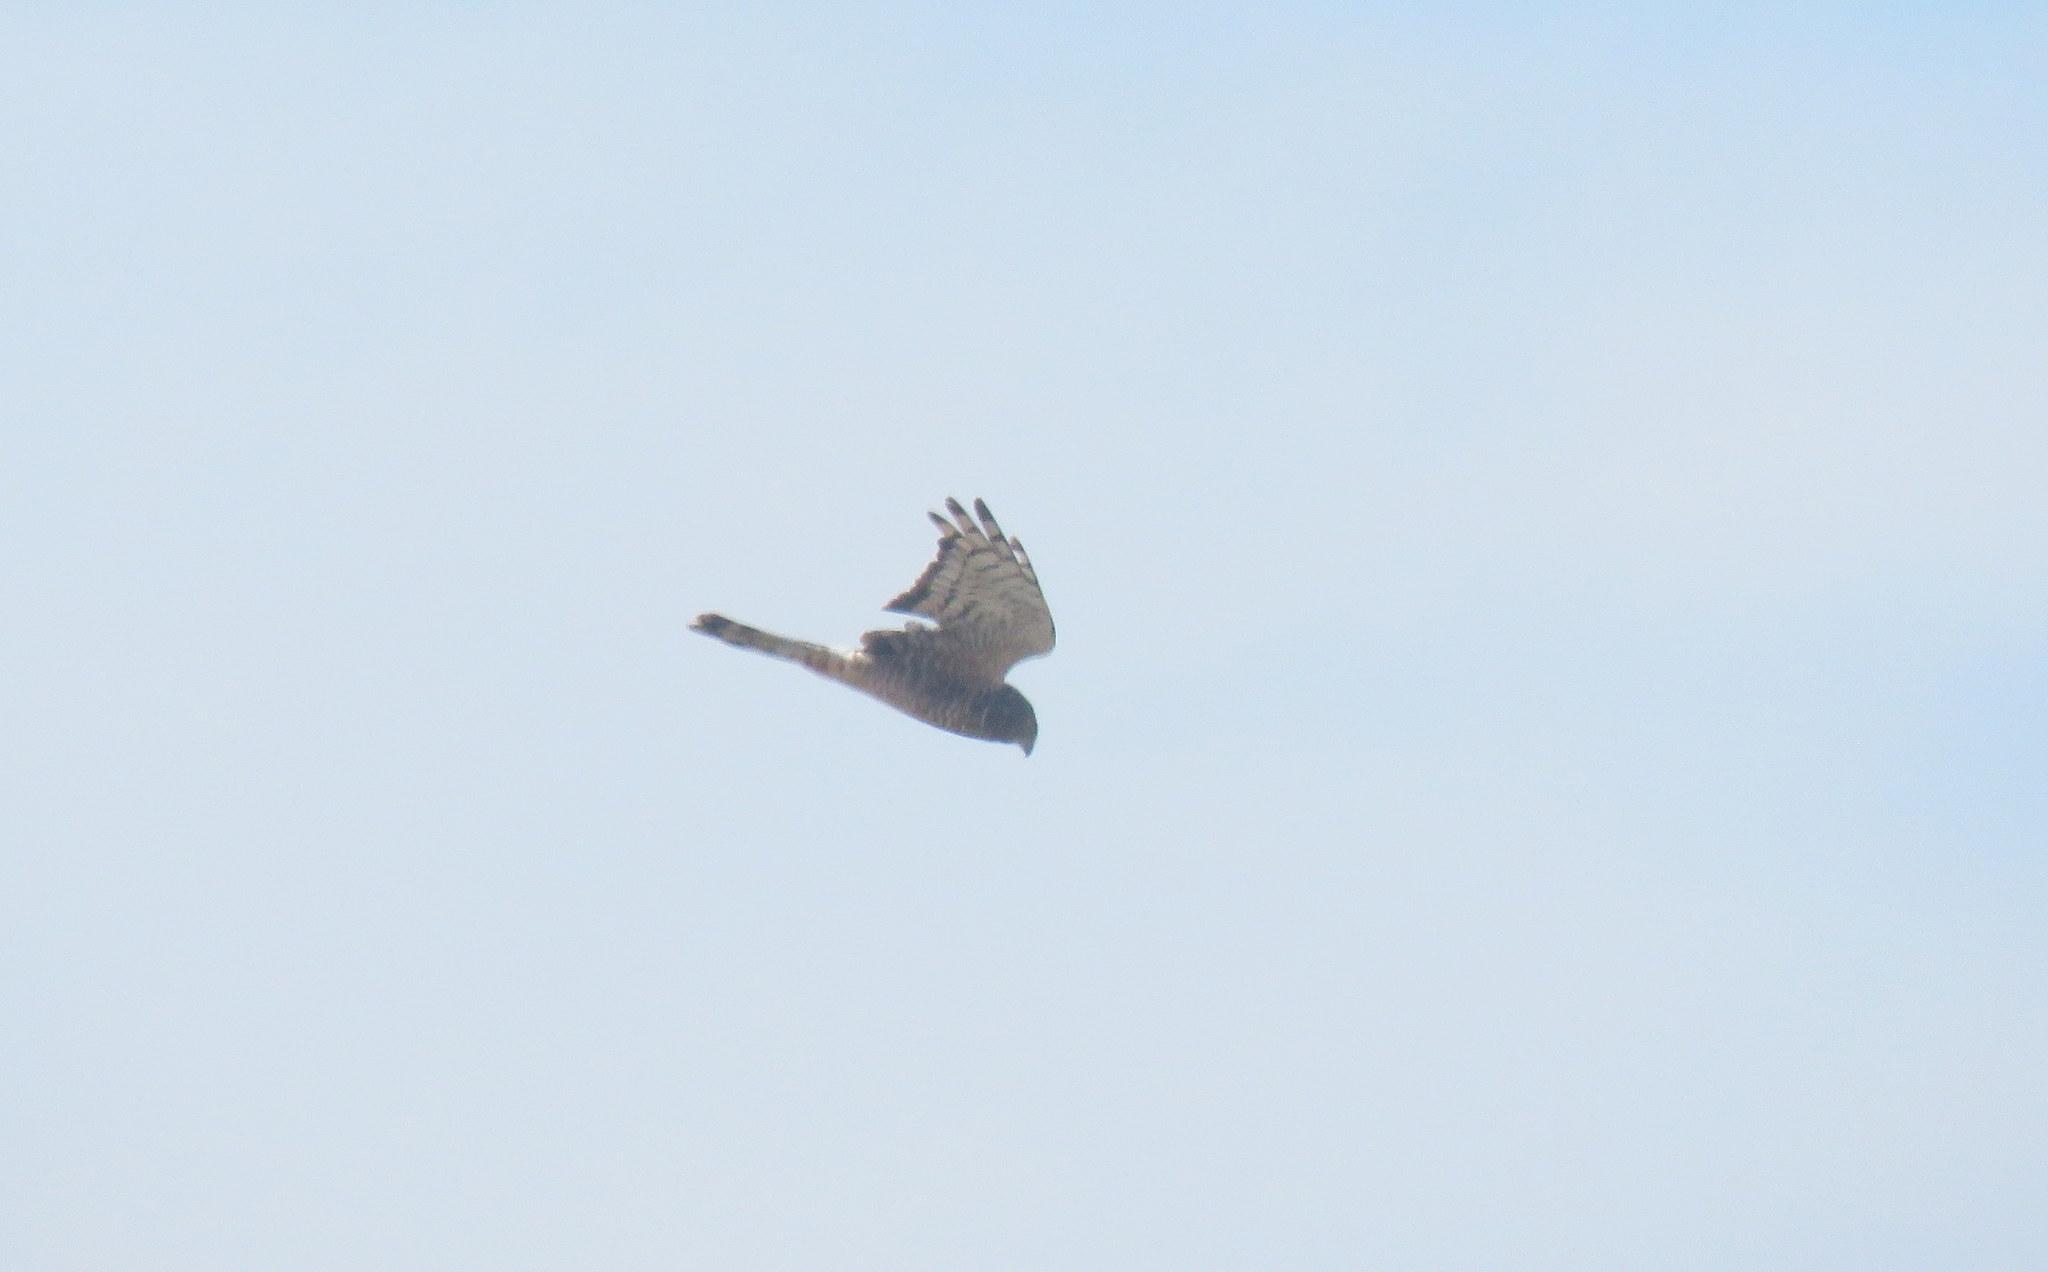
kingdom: Animalia
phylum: Chordata
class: Aves
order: Accipitriformes
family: Accipitridae
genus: Circus
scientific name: Circus cinereus
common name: Cinereous harrier
